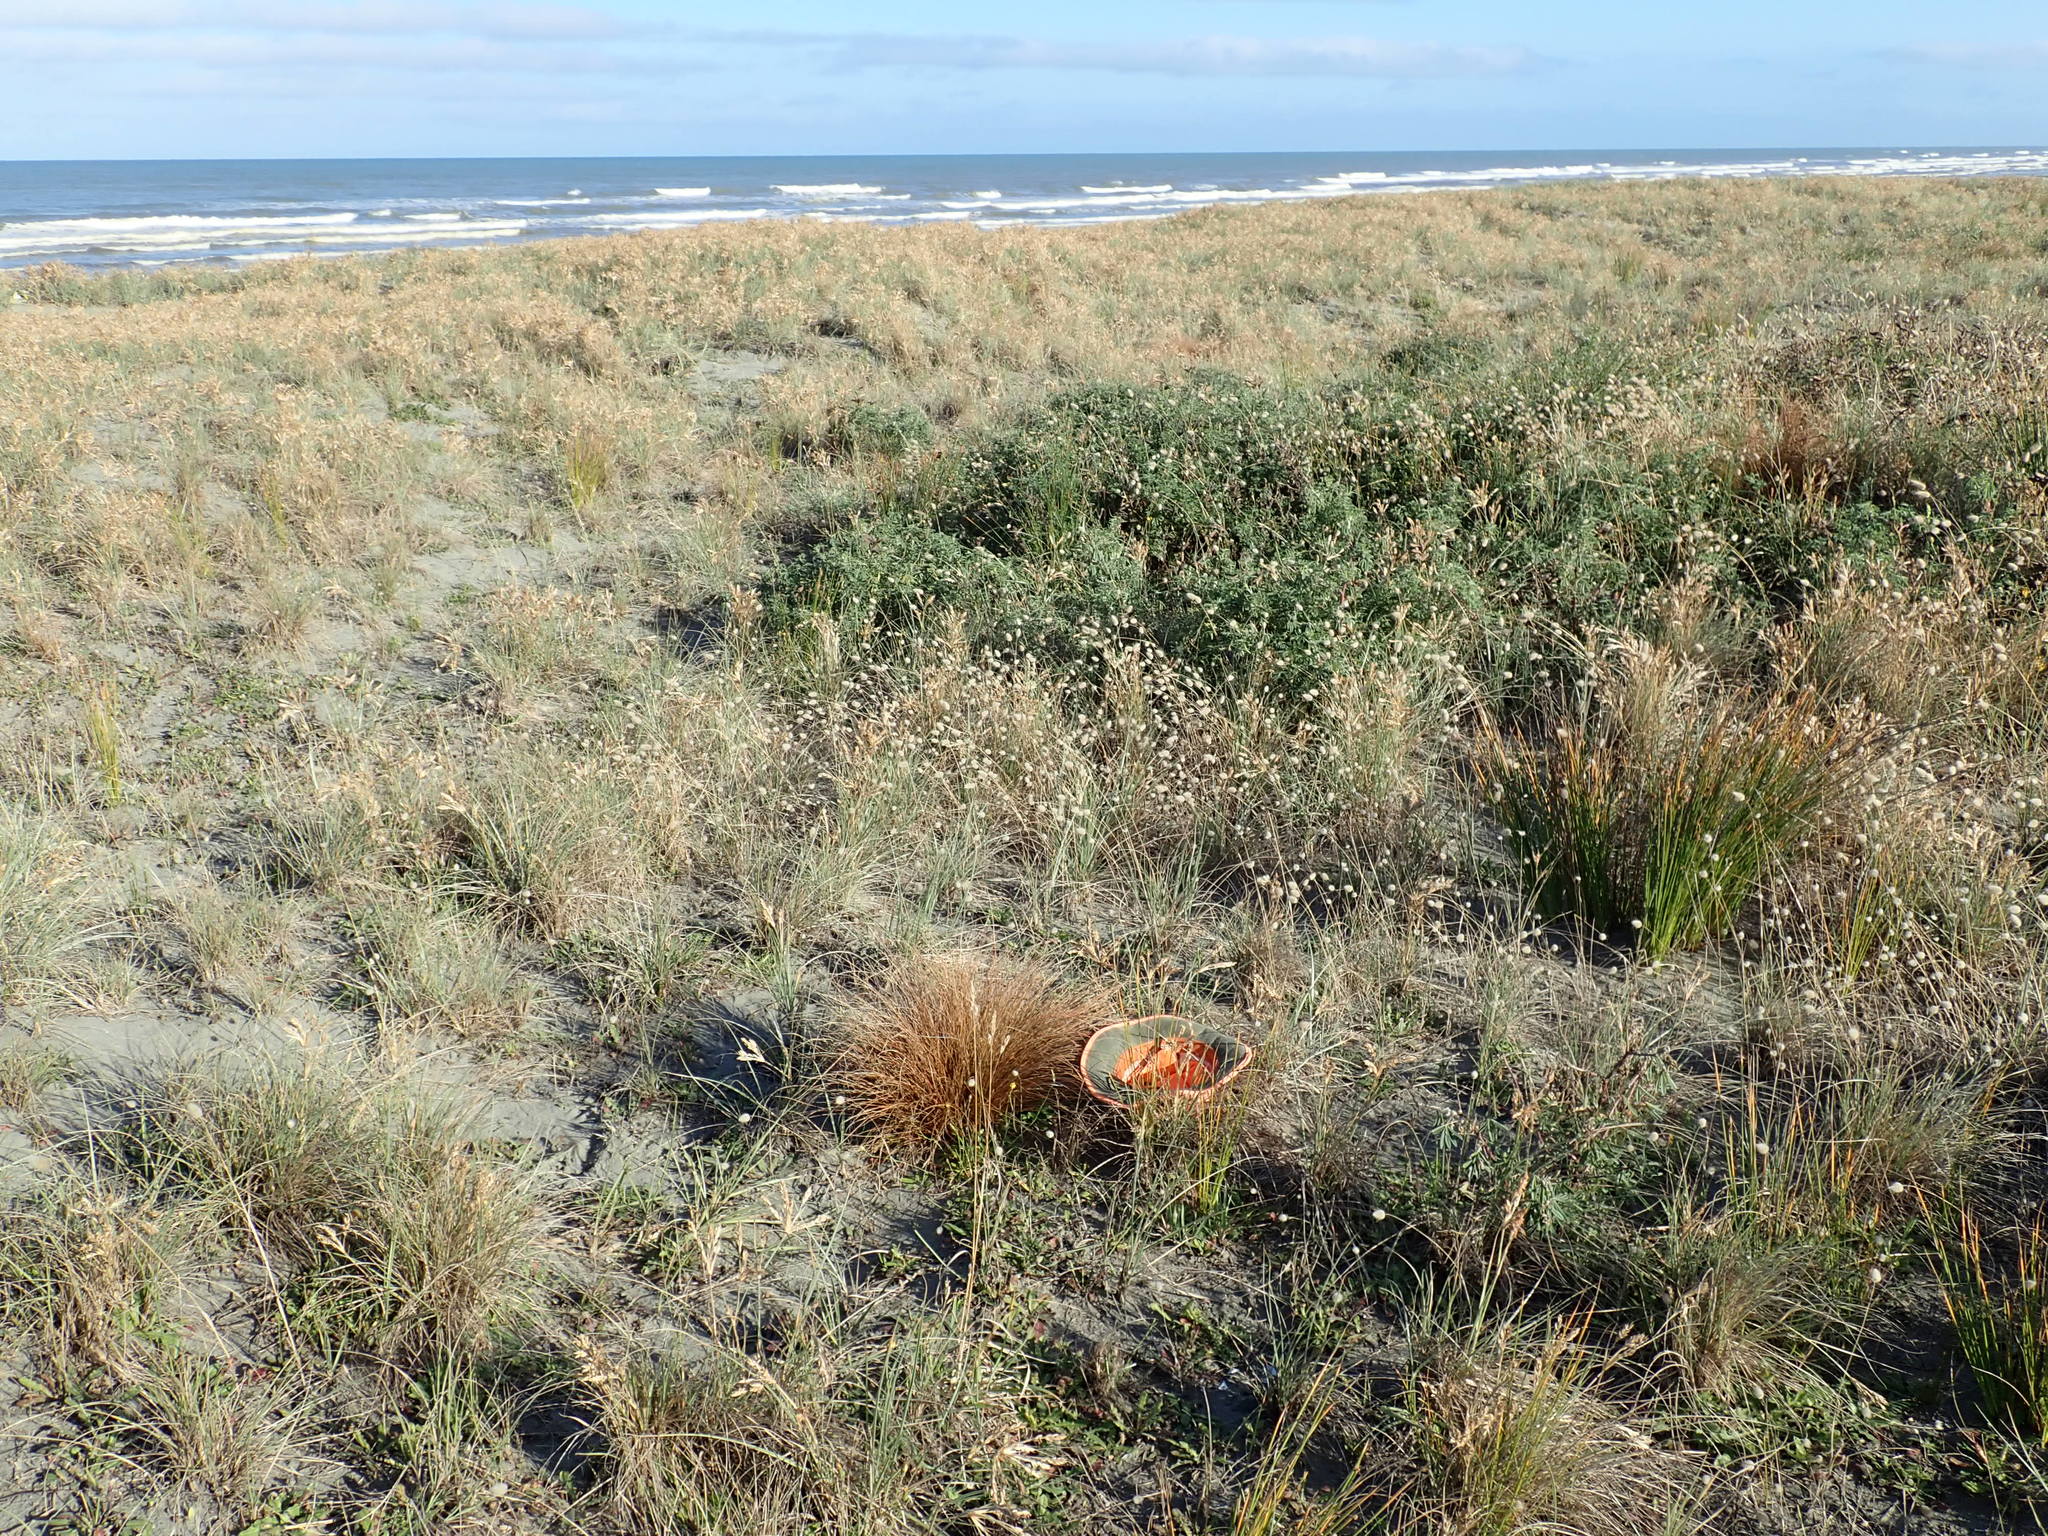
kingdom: Animalia
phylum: Arthropoda
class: Insecta
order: Hemiptera
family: Cicadidae
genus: Rhodopsalta
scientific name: Rhodopsalta leptomera
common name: Sand dune redtail cicada
